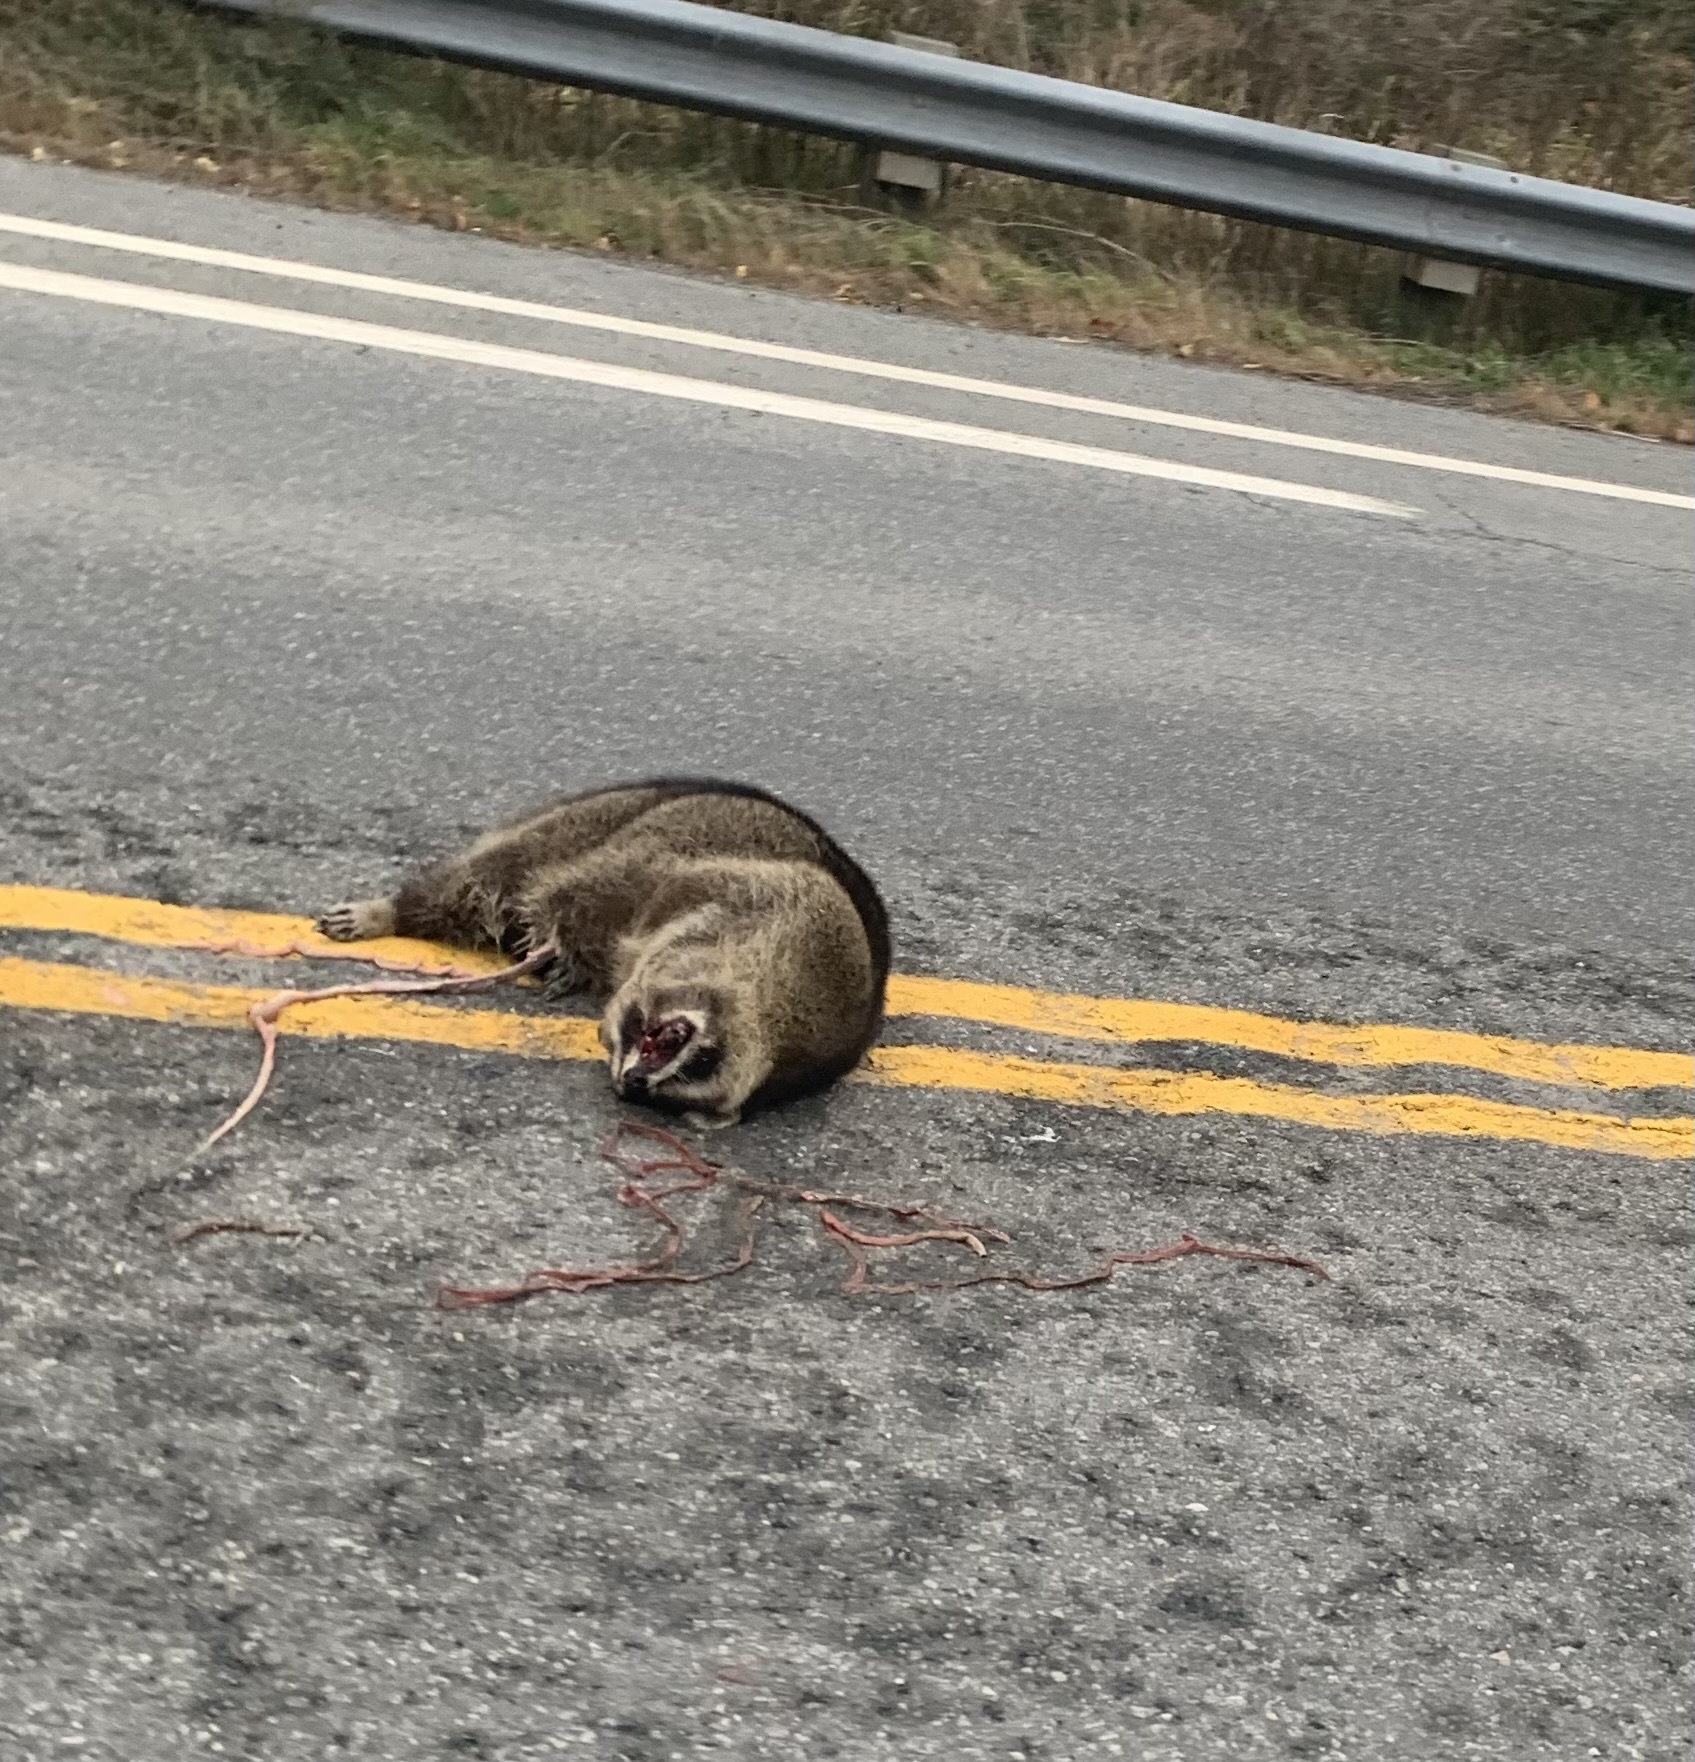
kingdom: Animalia
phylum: Chordata
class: Mammalia
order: Carnivora
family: Procyonidae
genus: Procyon
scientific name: Procyon lotor
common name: Raccoon
